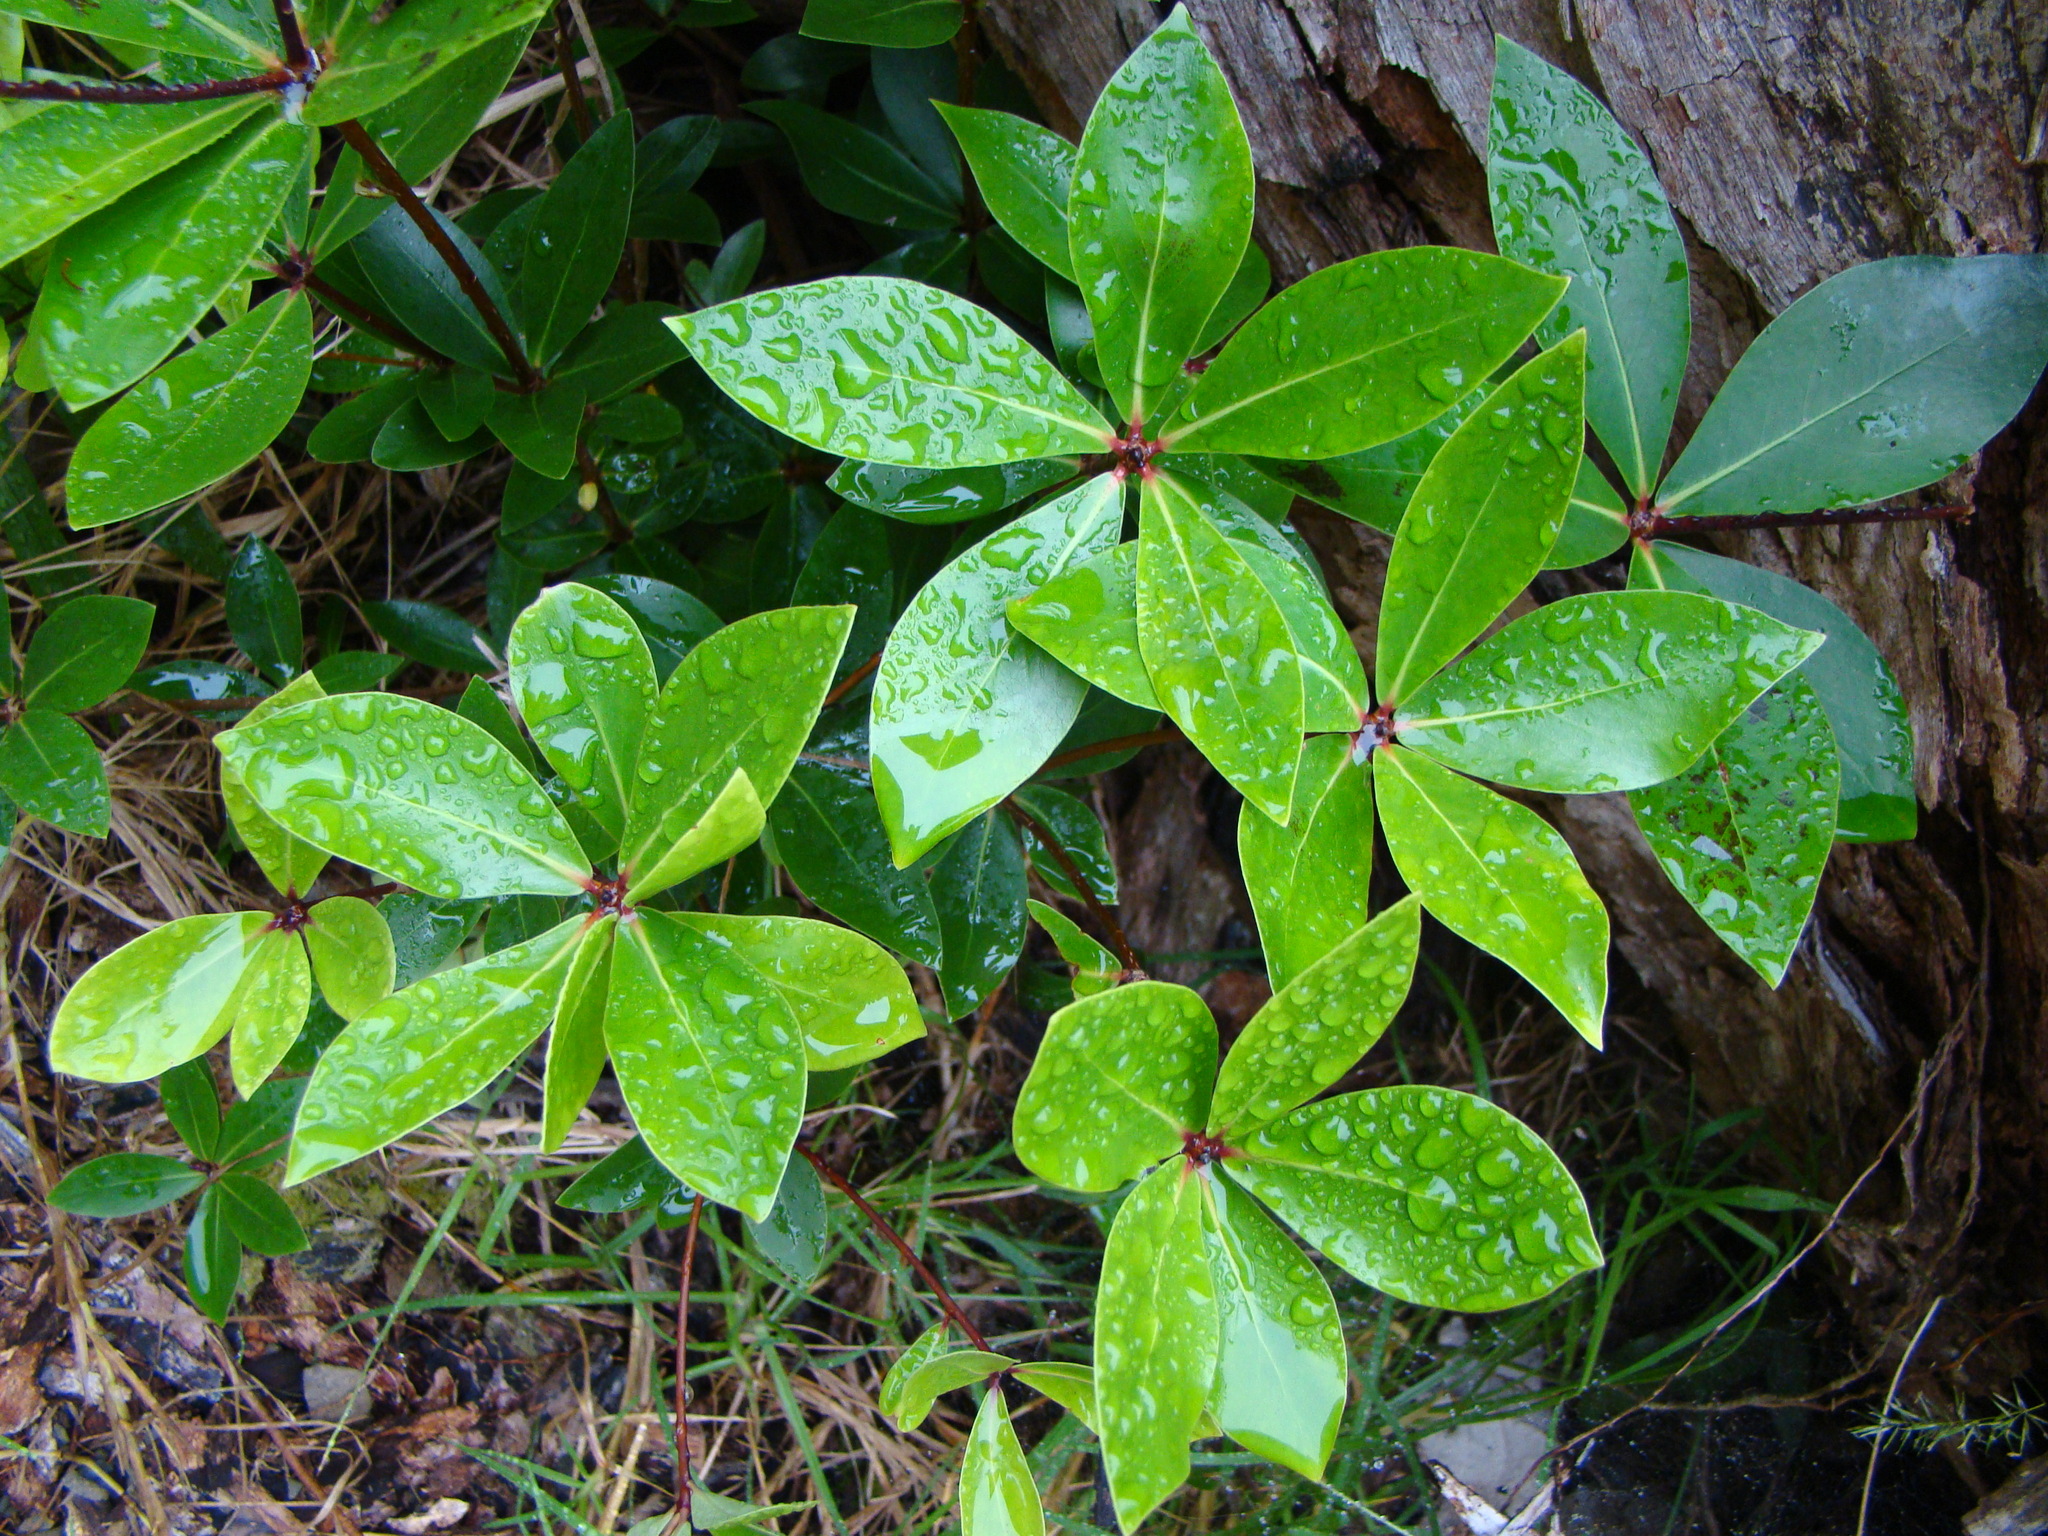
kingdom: Plantae
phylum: Tracheophyta
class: Magnoliopsida
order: Apiales
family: Pittosporaceae
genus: Pittosporum
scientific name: Pittosporum umbellatum
